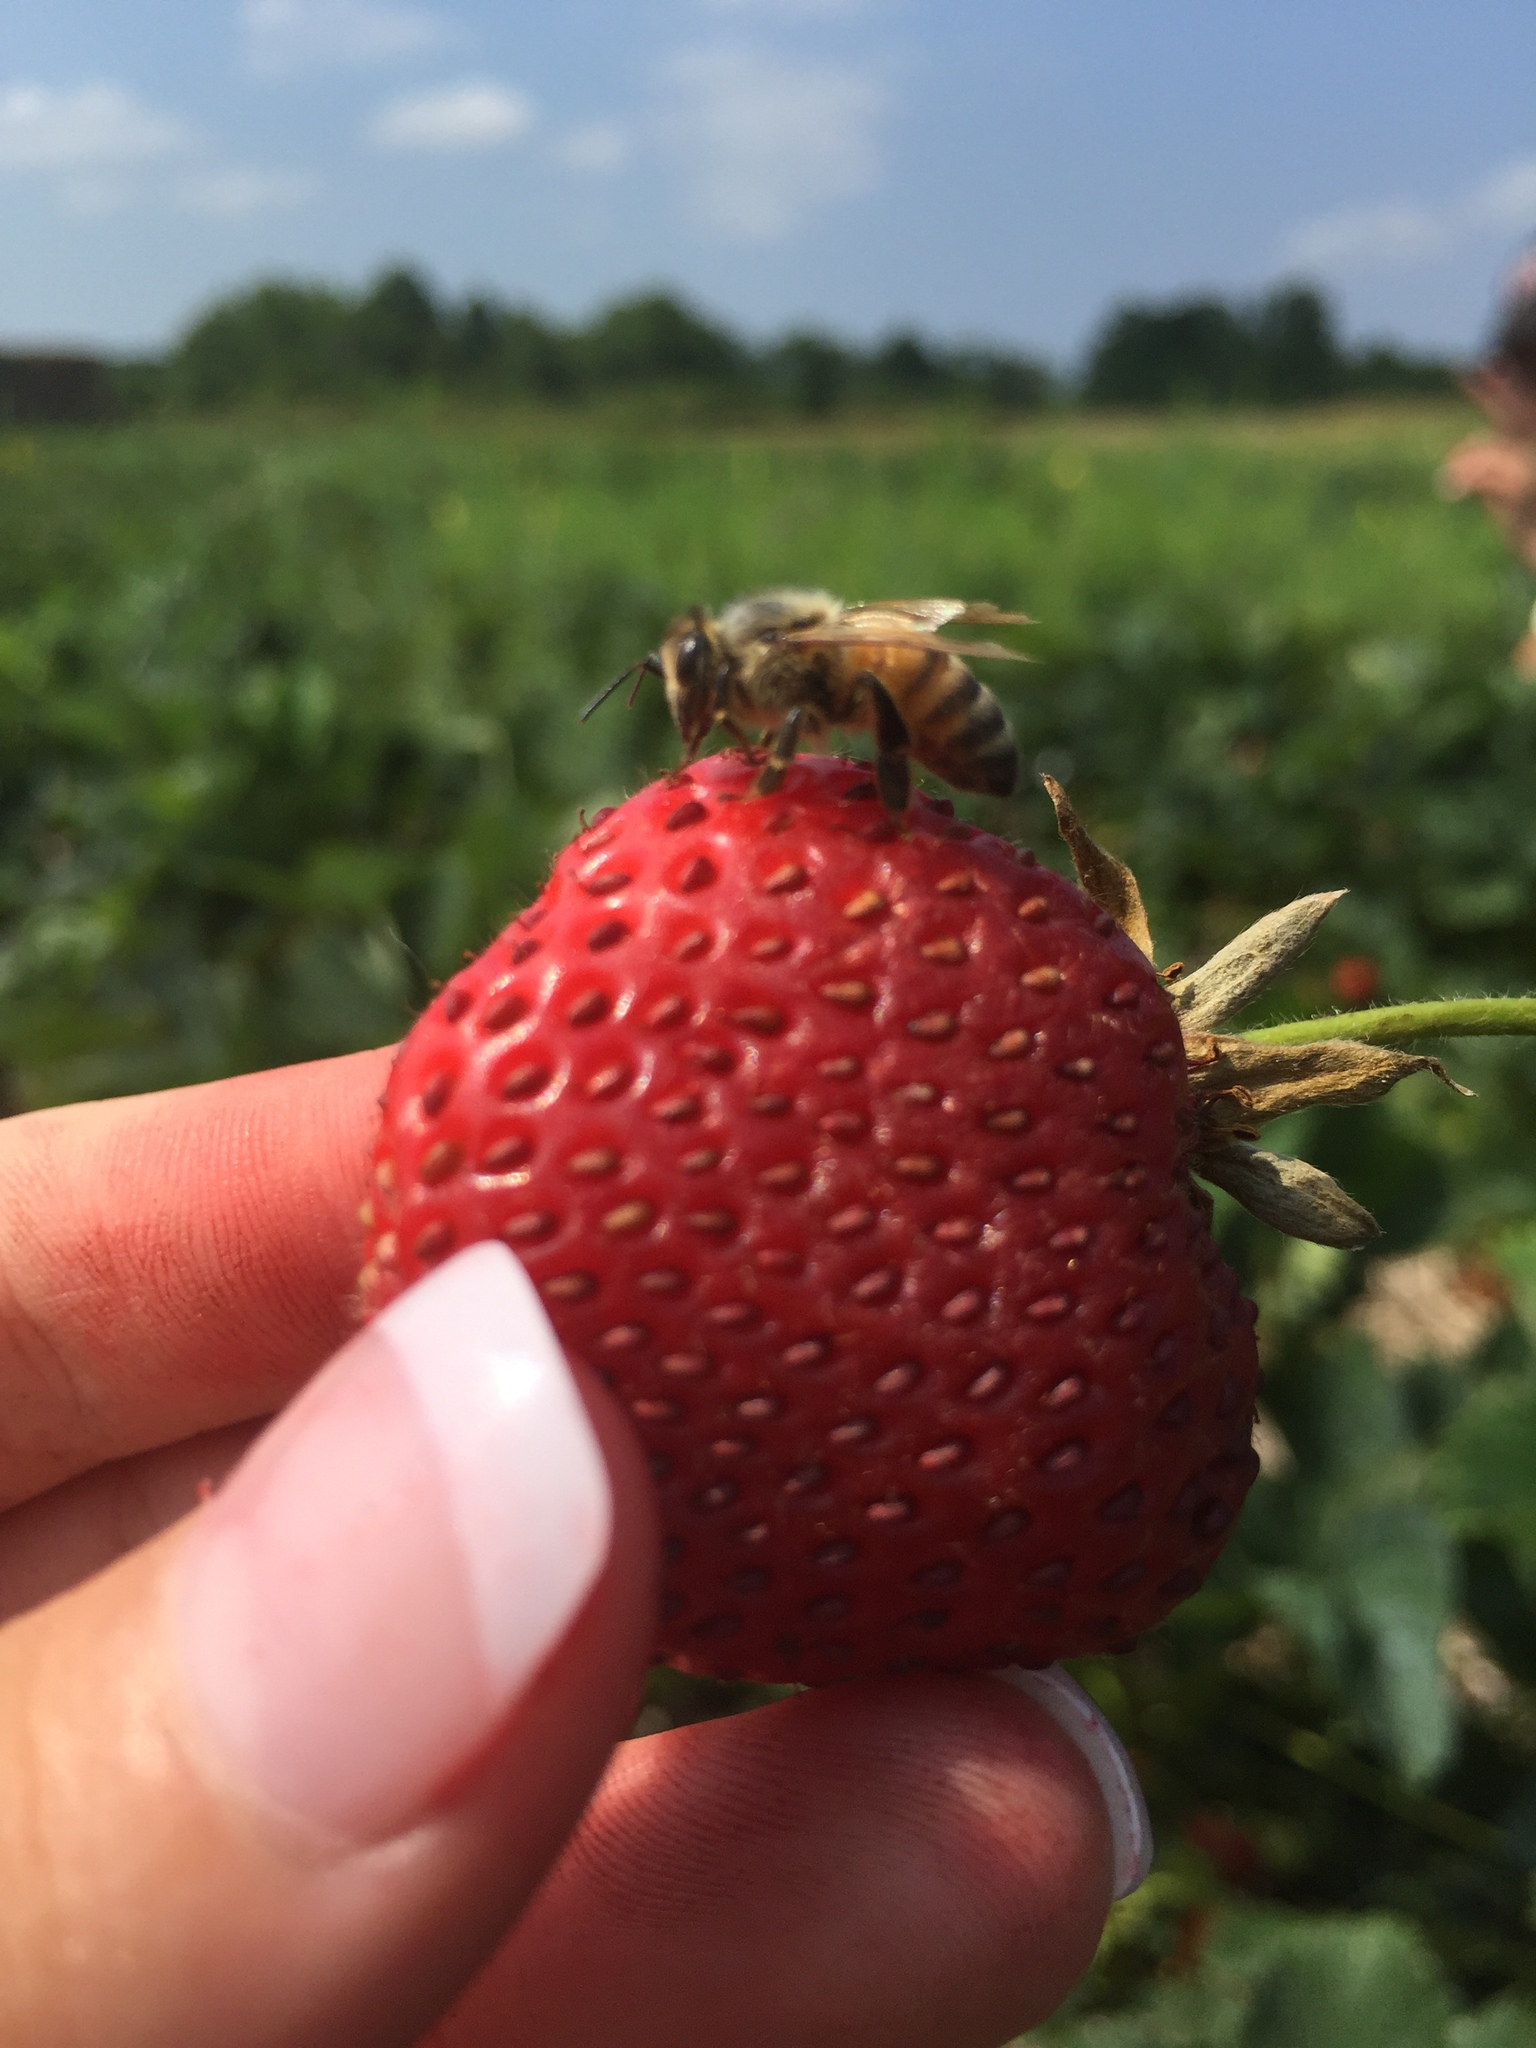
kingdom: Animalia
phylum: Arthropoda
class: Insecta
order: Hymenoptera
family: Apidae
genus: Apis
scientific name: Apis mellifera
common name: Honey bee
